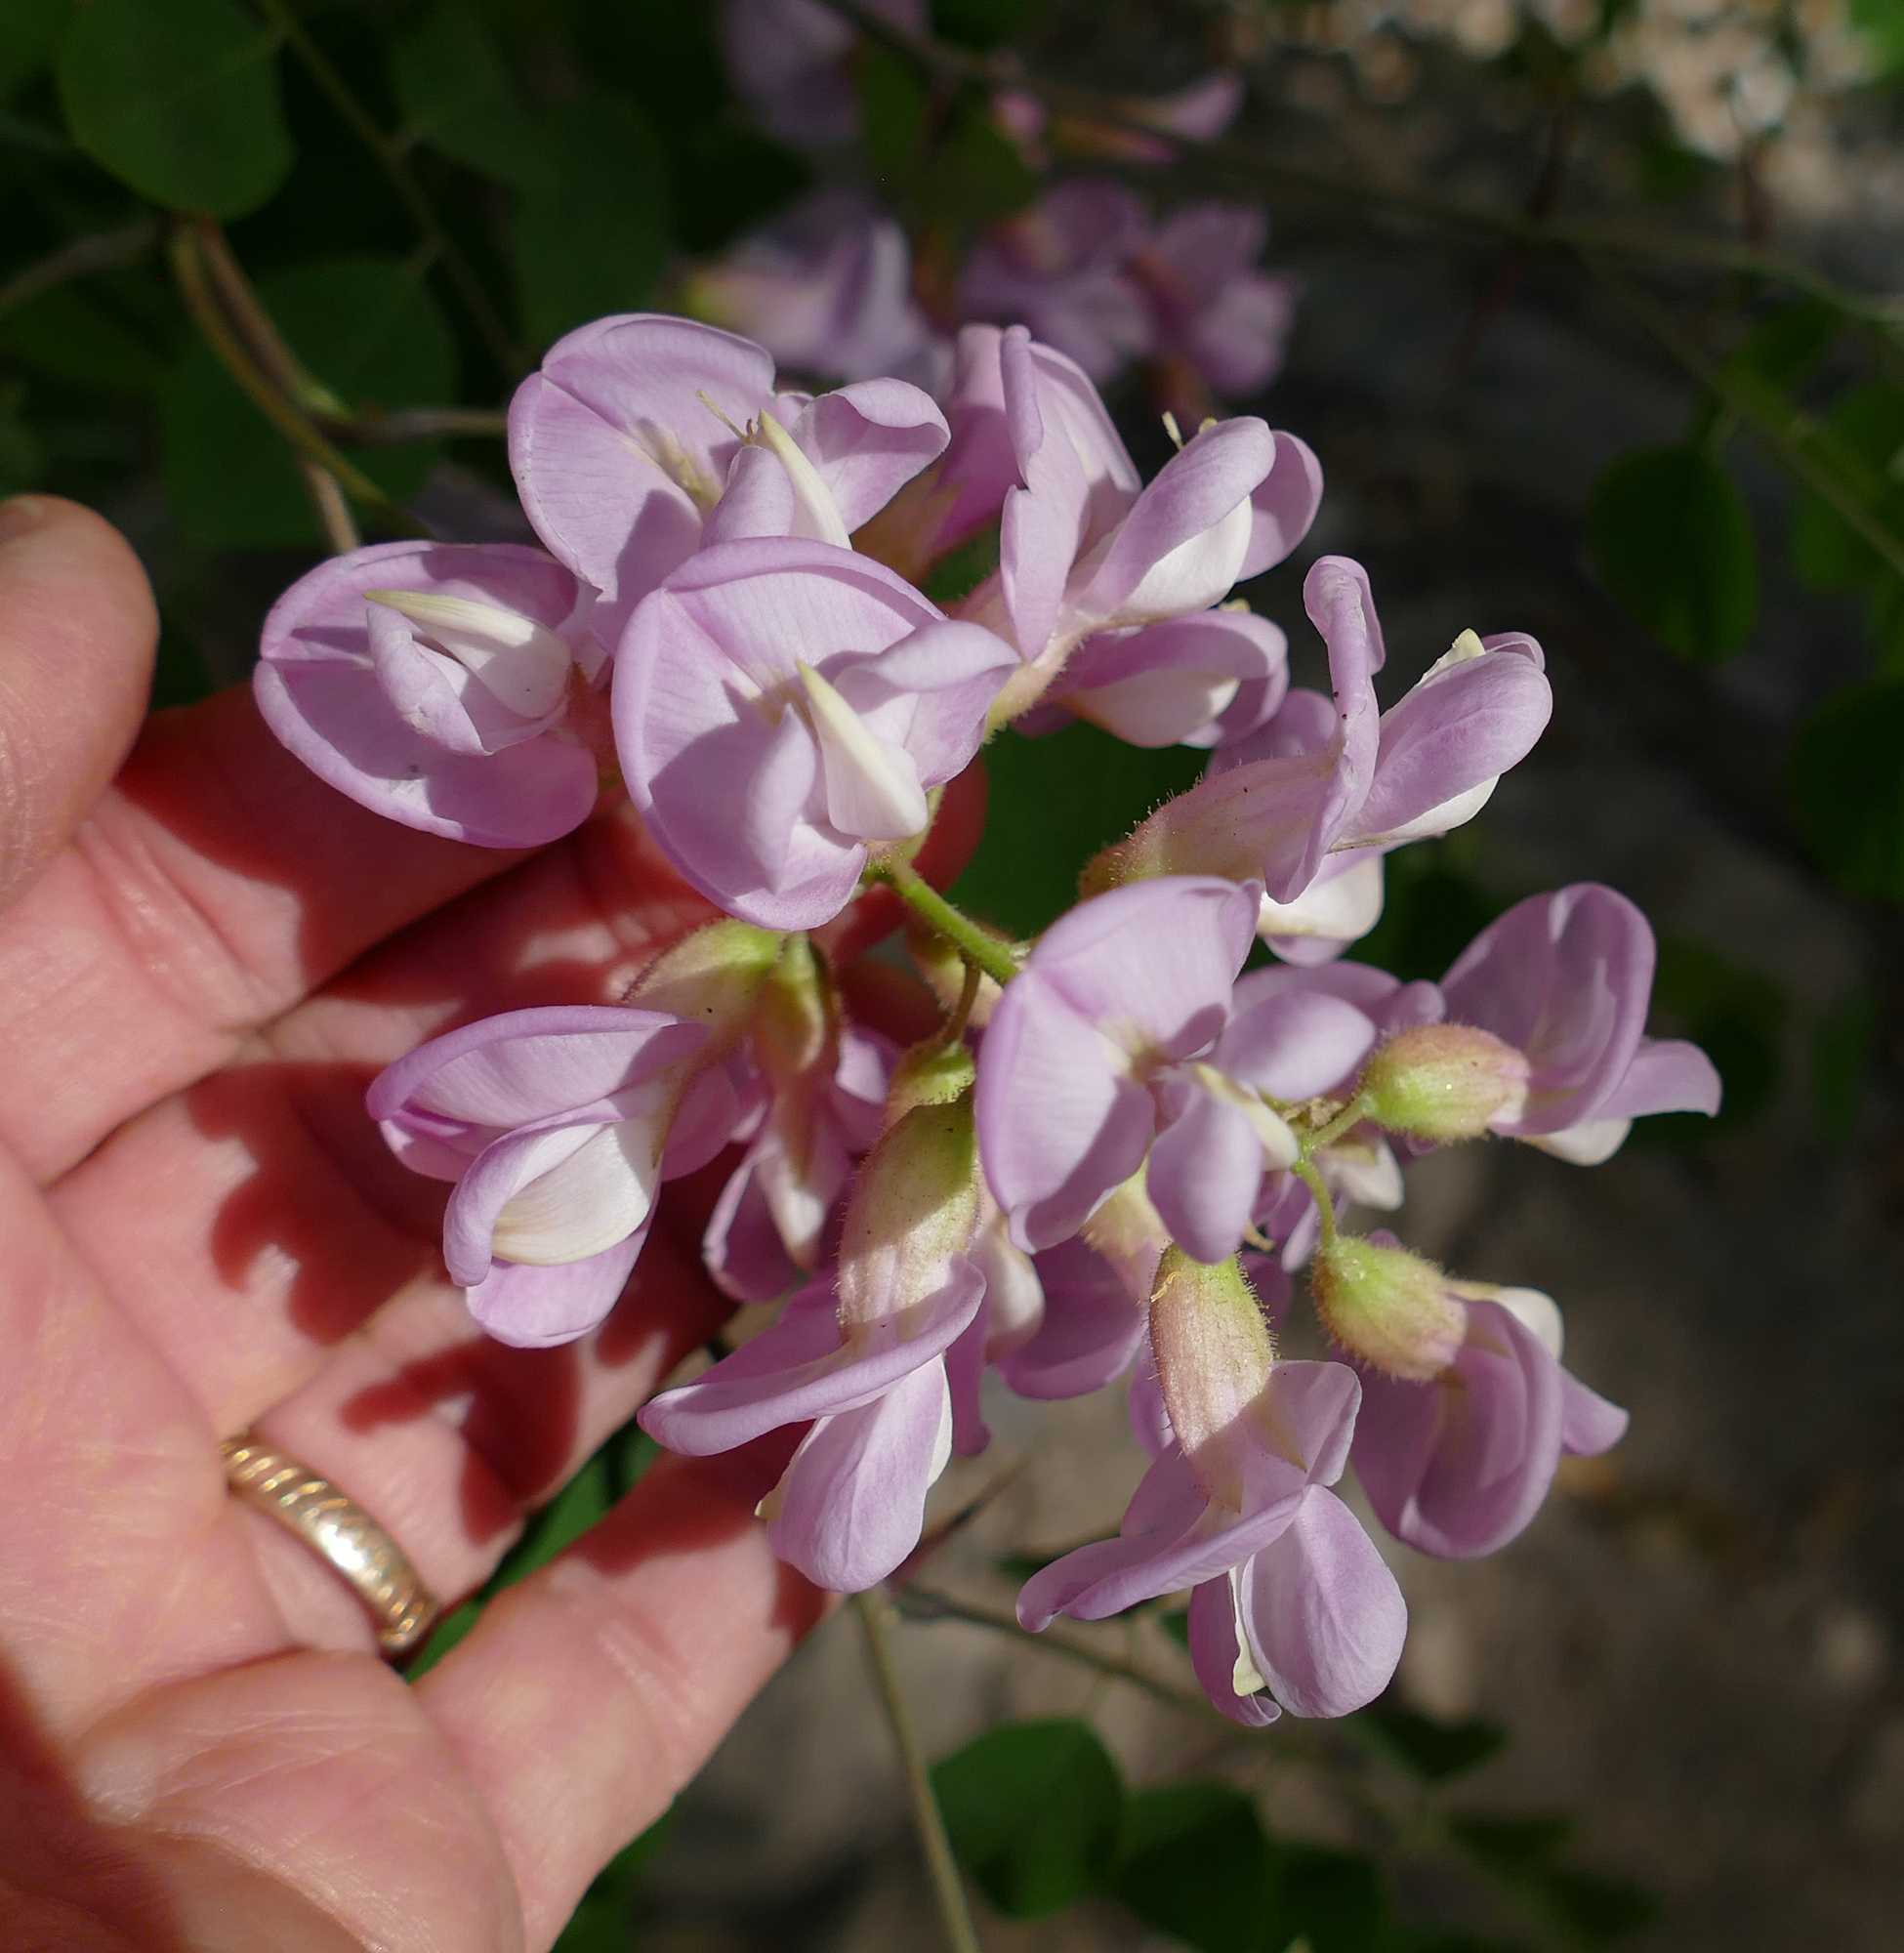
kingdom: Plantae
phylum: Tracheophyta
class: Magnoliopsida
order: Fabales
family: Fabaceae
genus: Robinia
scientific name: Robinia neomexicana
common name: New mexico locust
